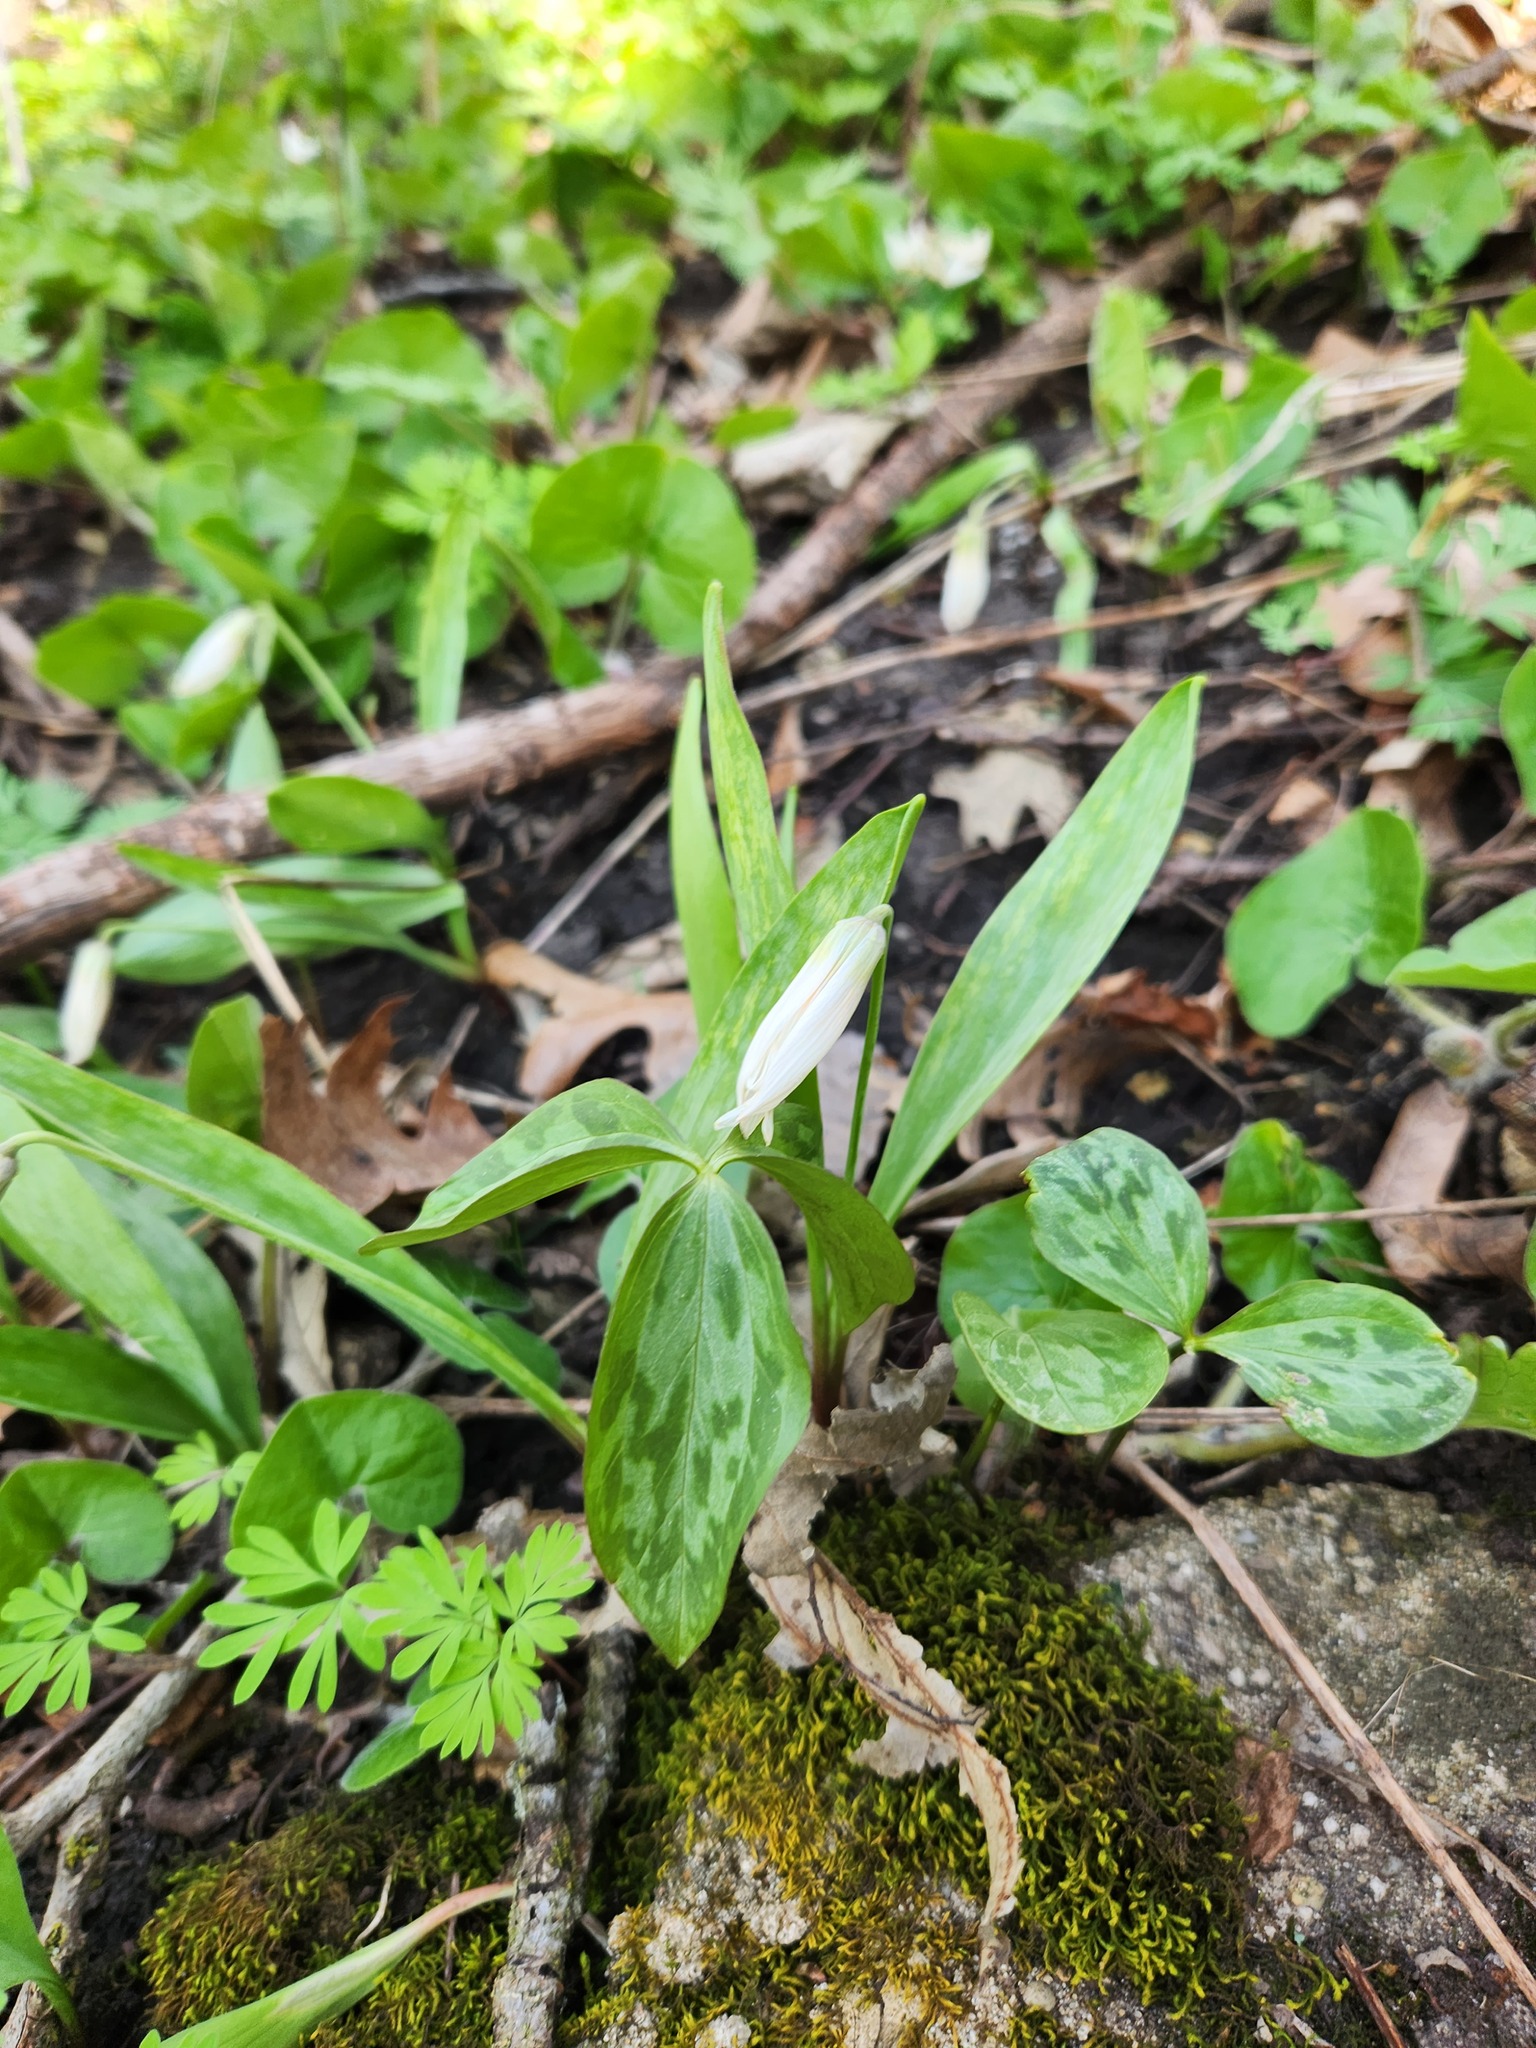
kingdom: Plantae
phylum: Tracheophyta
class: Liliopsida
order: Liliales
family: Liliaceae
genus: Erythronium
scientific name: Erythronium albidum
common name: White trout-lily
